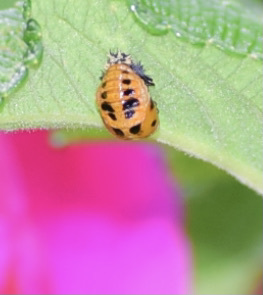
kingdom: Animalia
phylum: Arthropoda
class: Insecta
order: Coleoptera
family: Coccinellidae
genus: Harmonia
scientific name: Harmonia axyridis
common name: Harlequin ladybird
